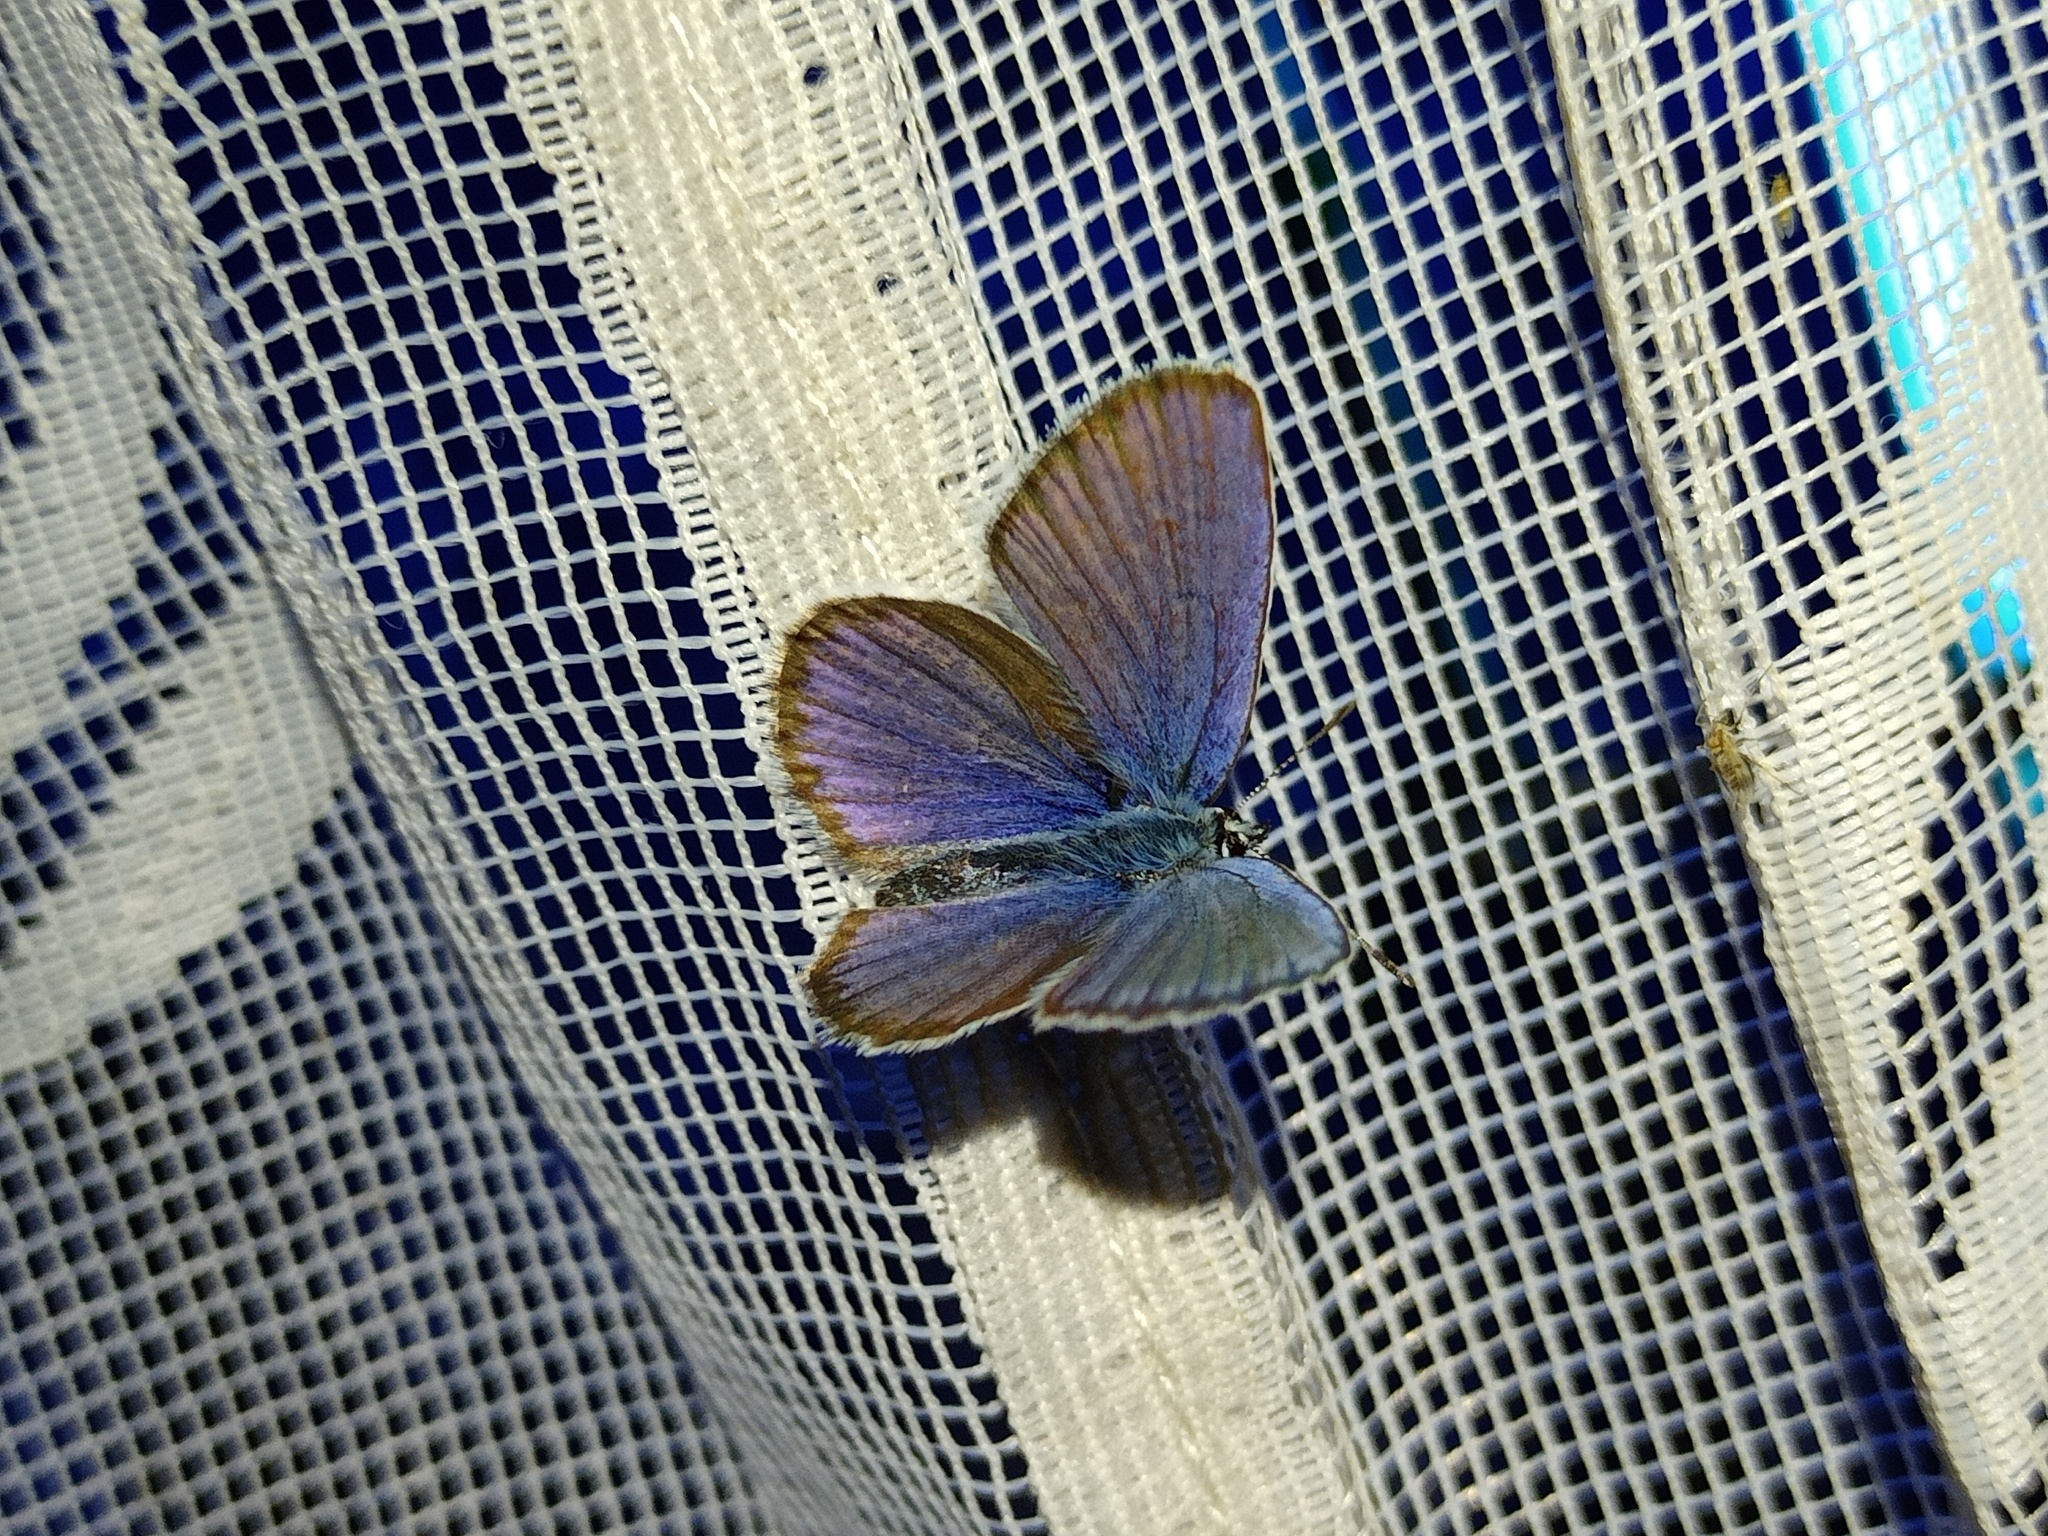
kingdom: Animalia
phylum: Arthropoda
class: Insecta
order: Lepidoptera
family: Lycaenidae
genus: Plebejus
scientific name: Plebejus argyrognomon
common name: Reverdin's blue
